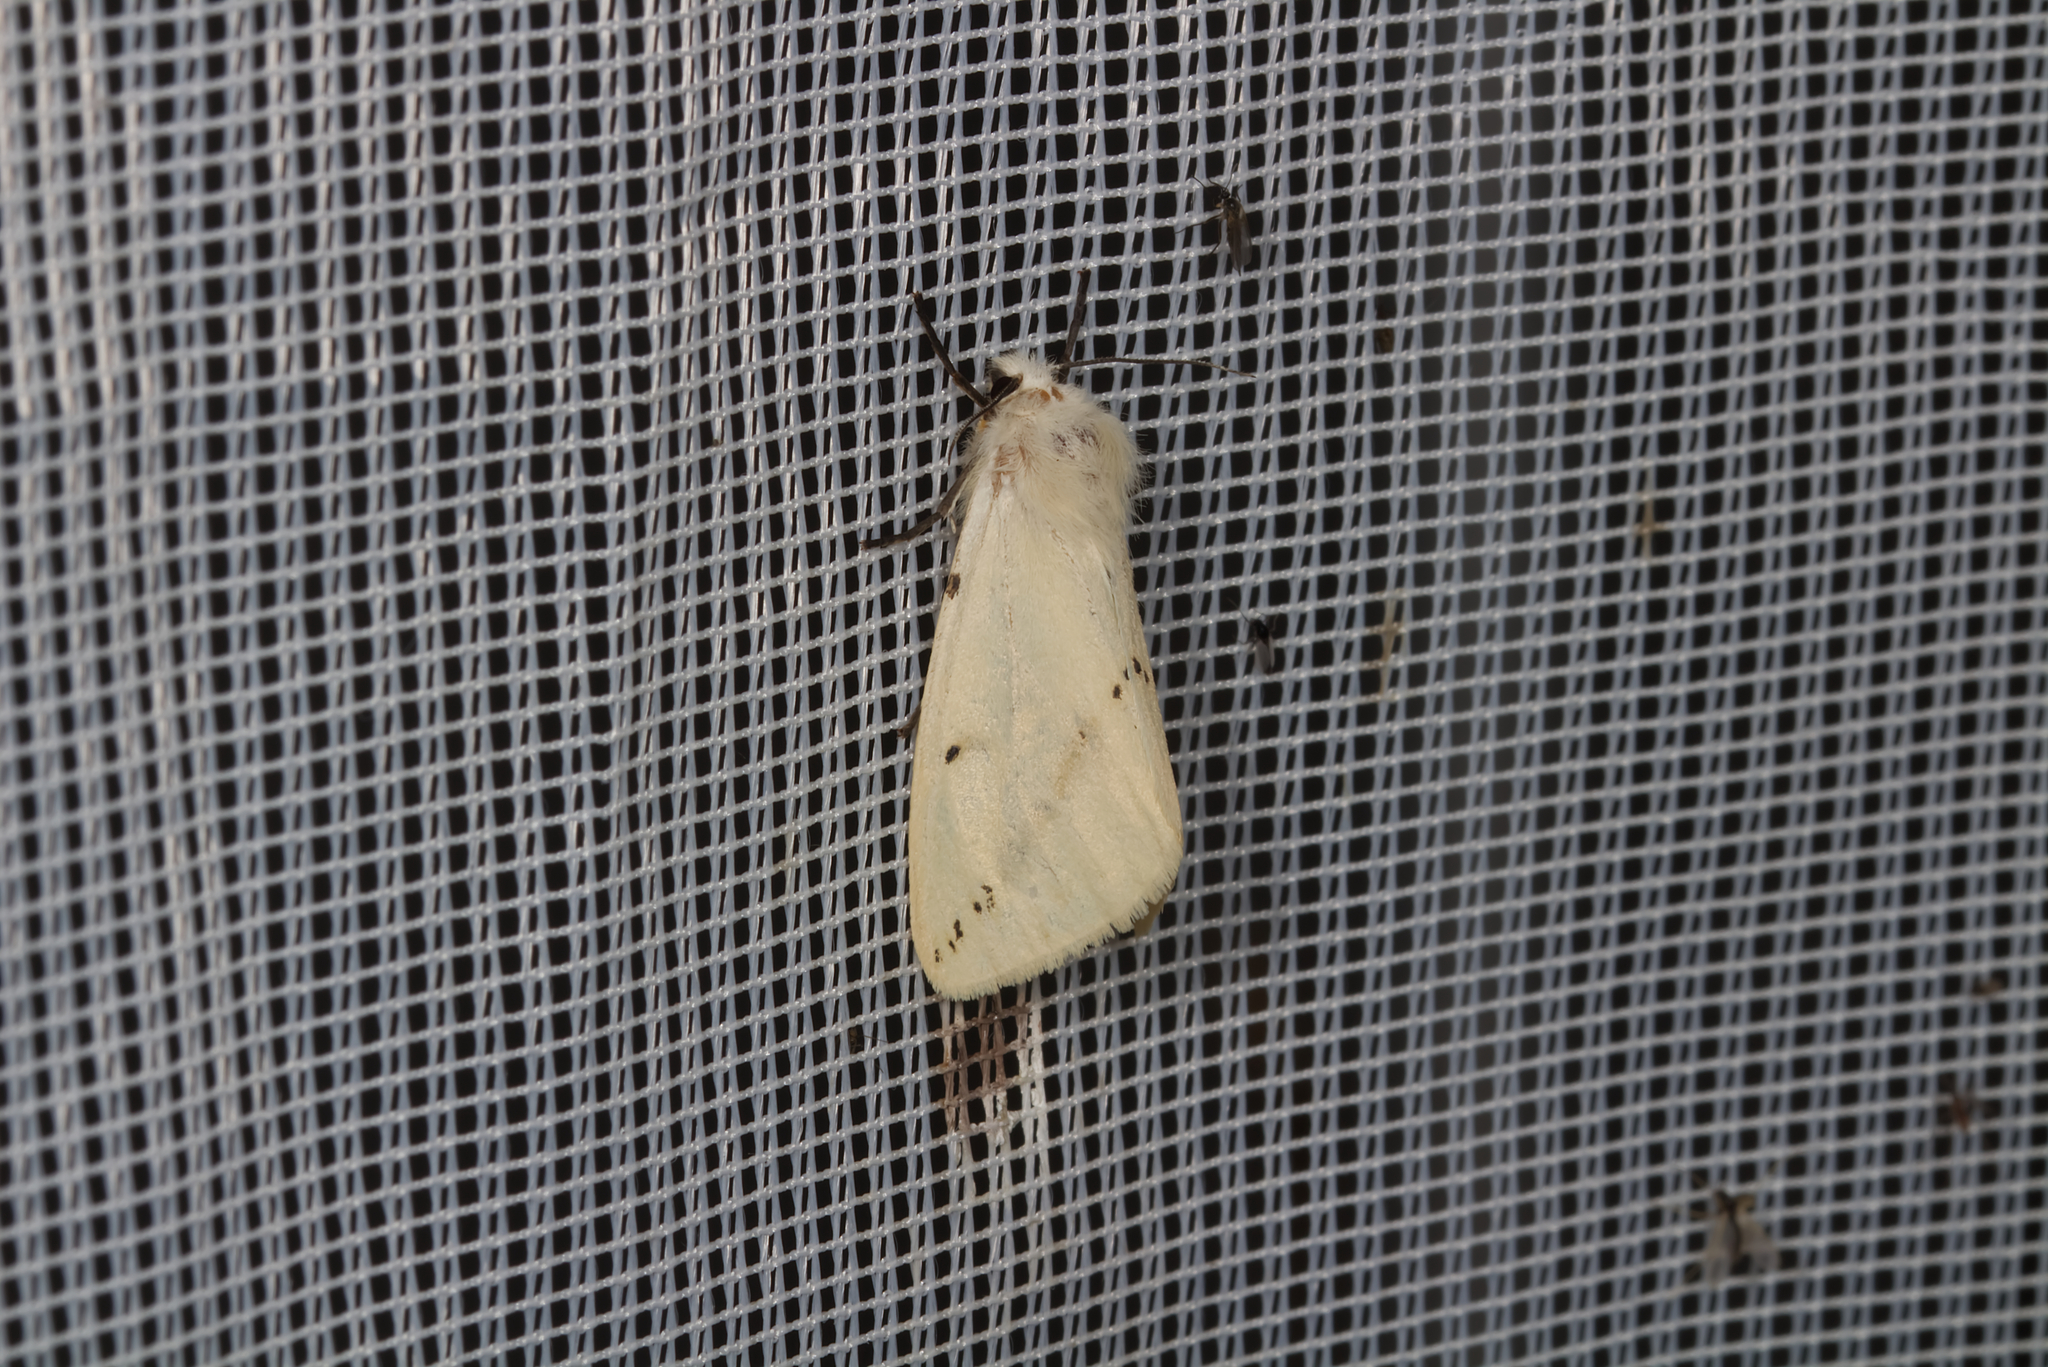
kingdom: Animalia
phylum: Arthropoda
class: Insecta
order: Lepidoptera
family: Erebidae
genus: Spilarctia
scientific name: Spilarctia lutea
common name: Buff ermine
